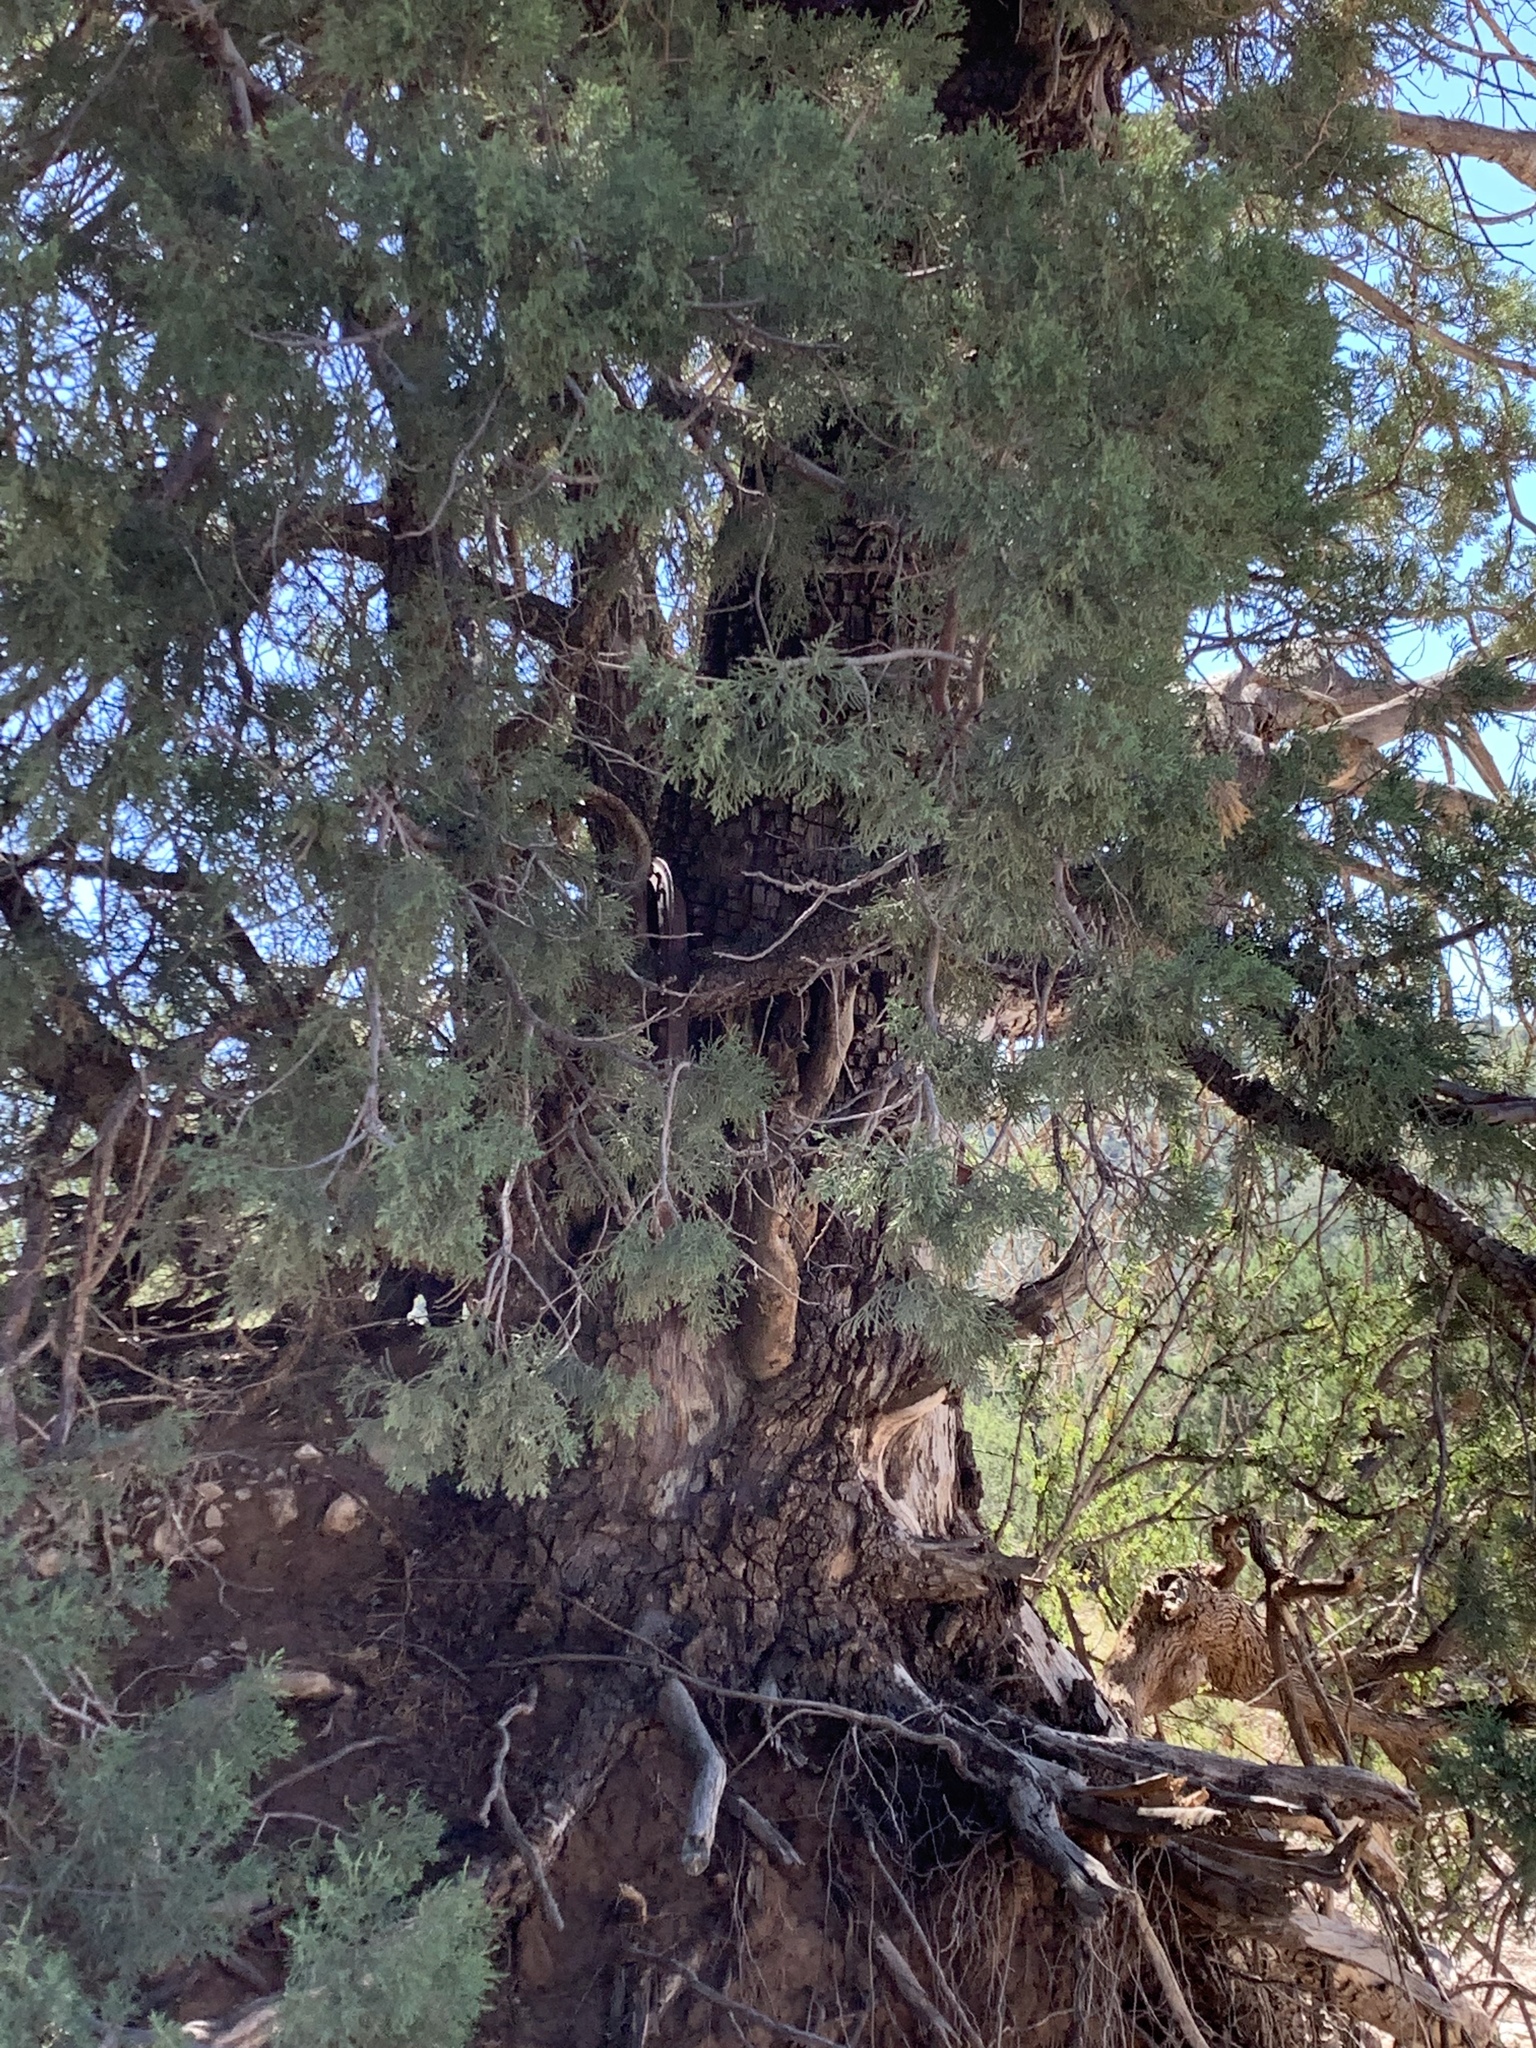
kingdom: Plantae
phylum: Tracheophyta
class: Pinopsida
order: Pinales
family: Cupressaceae
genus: Juniperus
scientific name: Juniperus deppeana
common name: Alligator juniper
